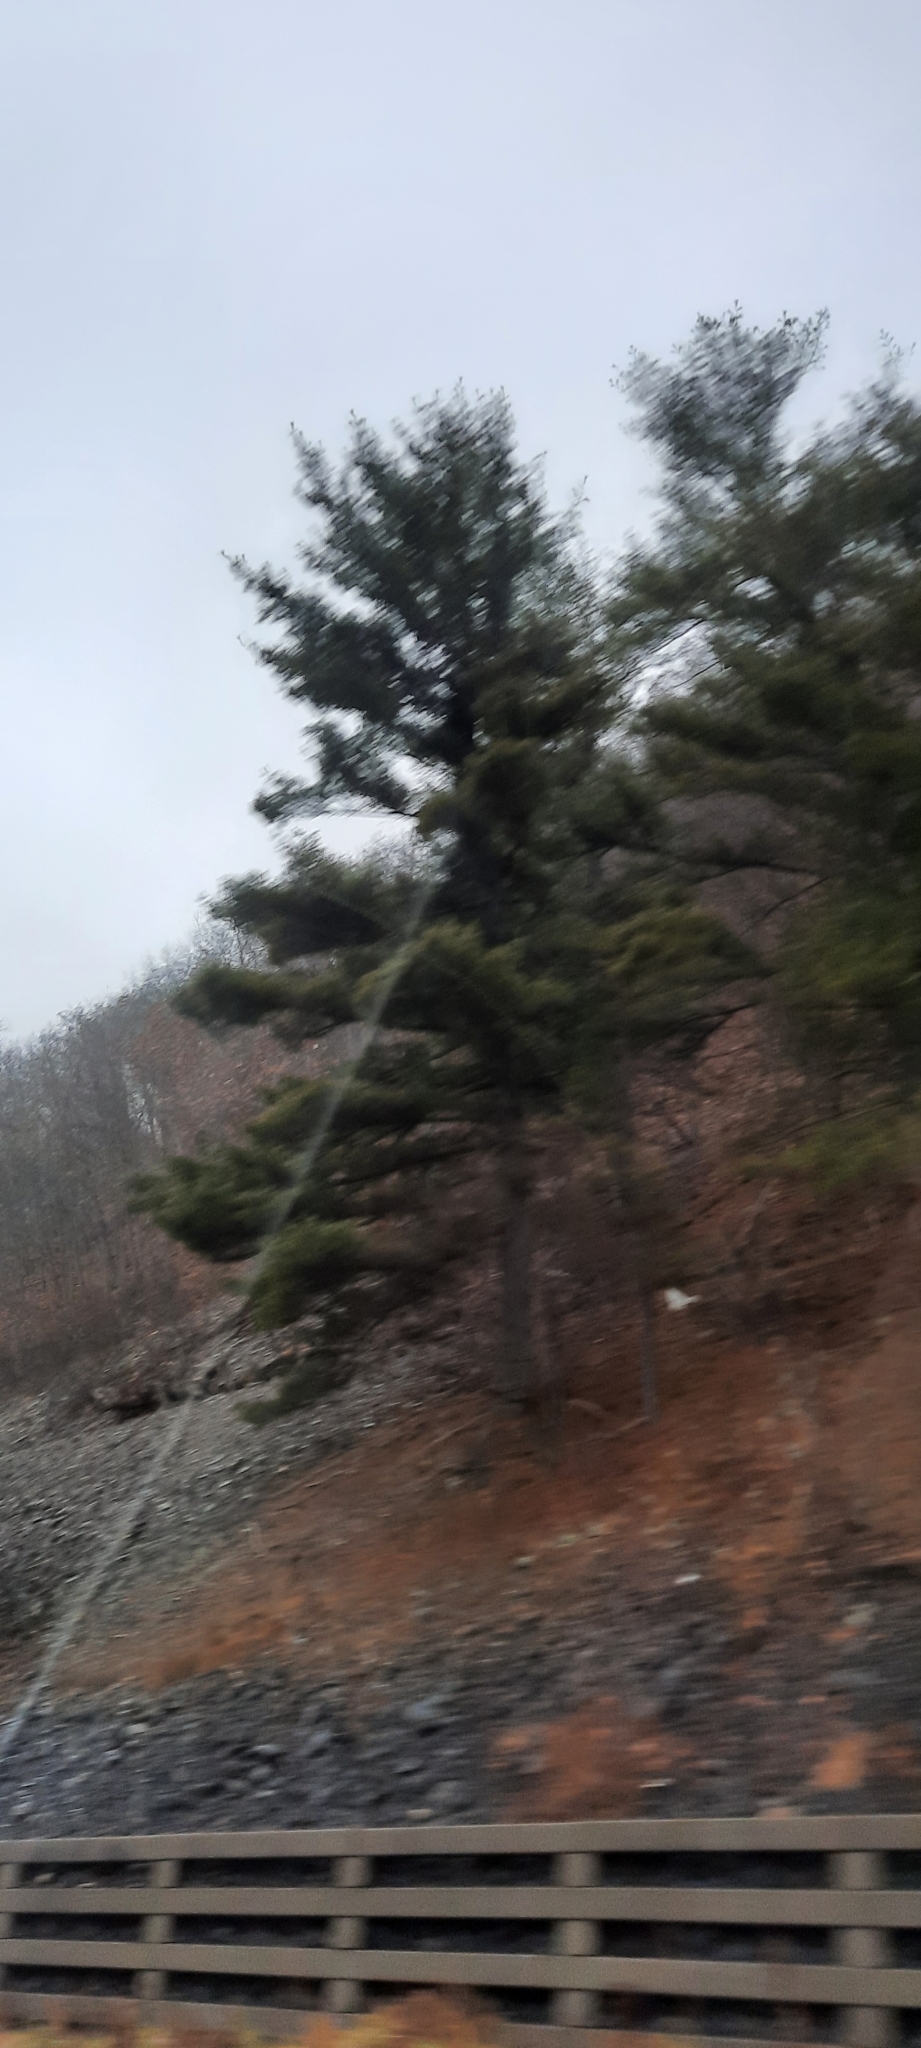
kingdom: Plantae
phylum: Tracheophyta
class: Pinopsida
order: Pinales
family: Pinaceae
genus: Pinus
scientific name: Pinus strobus
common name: Weymouth pine
